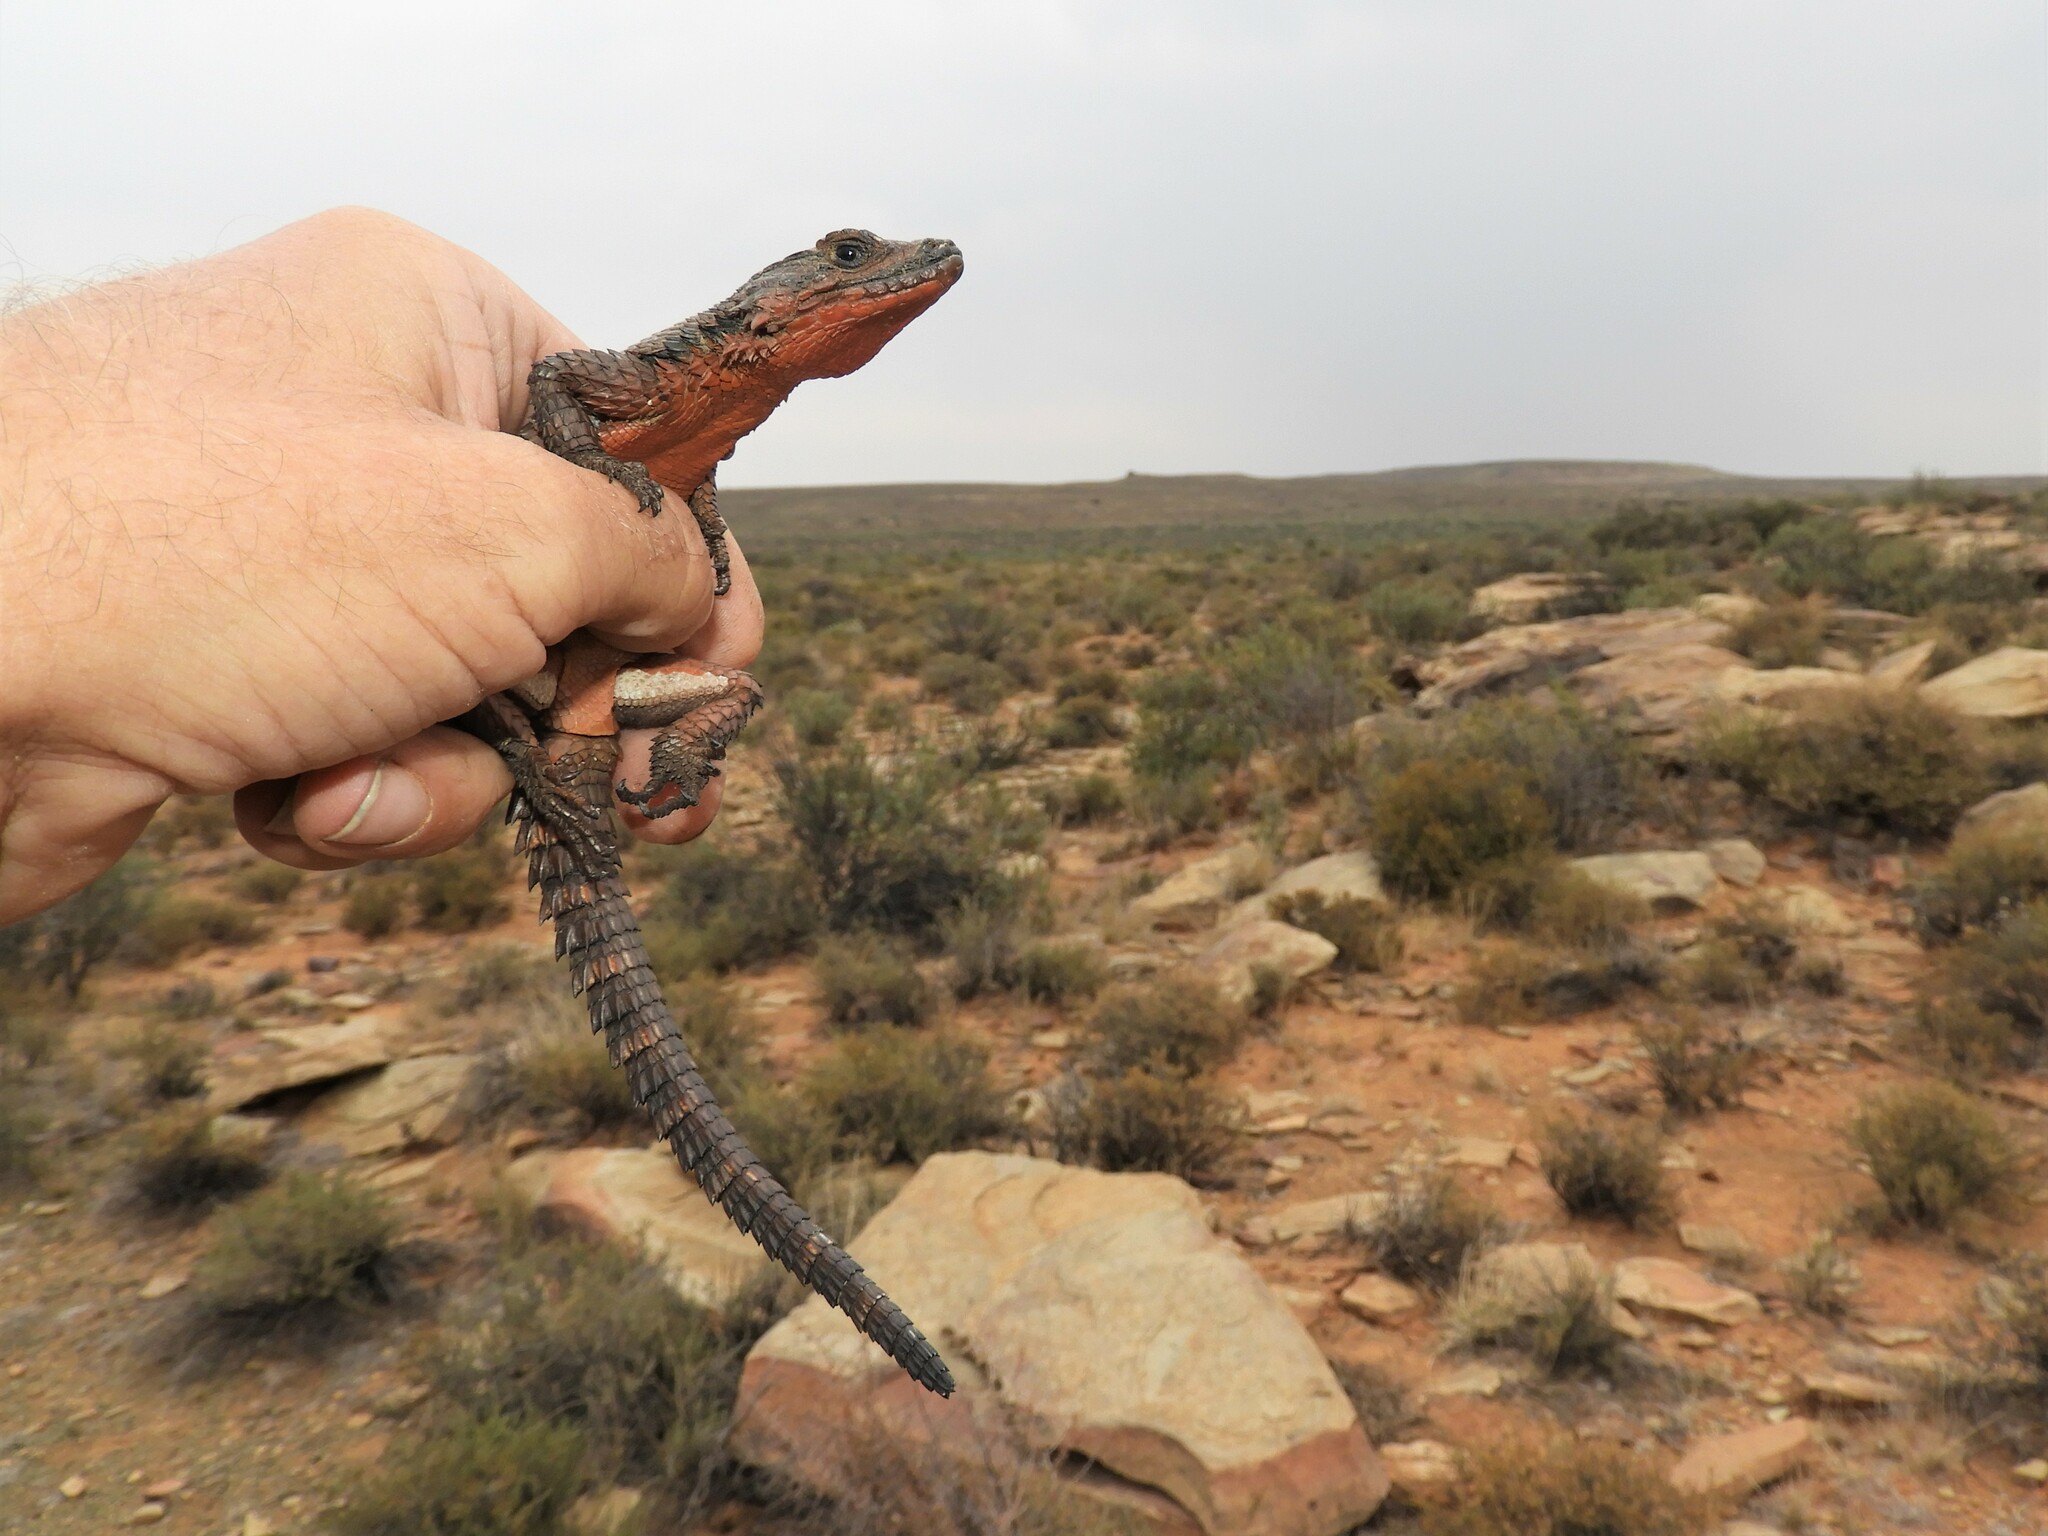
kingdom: Animalia
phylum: Chordata
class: Squamata
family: Cordylidae
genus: Karusasaurus
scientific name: Karusasaurus polyzonus
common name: Karoo girdled lizard
